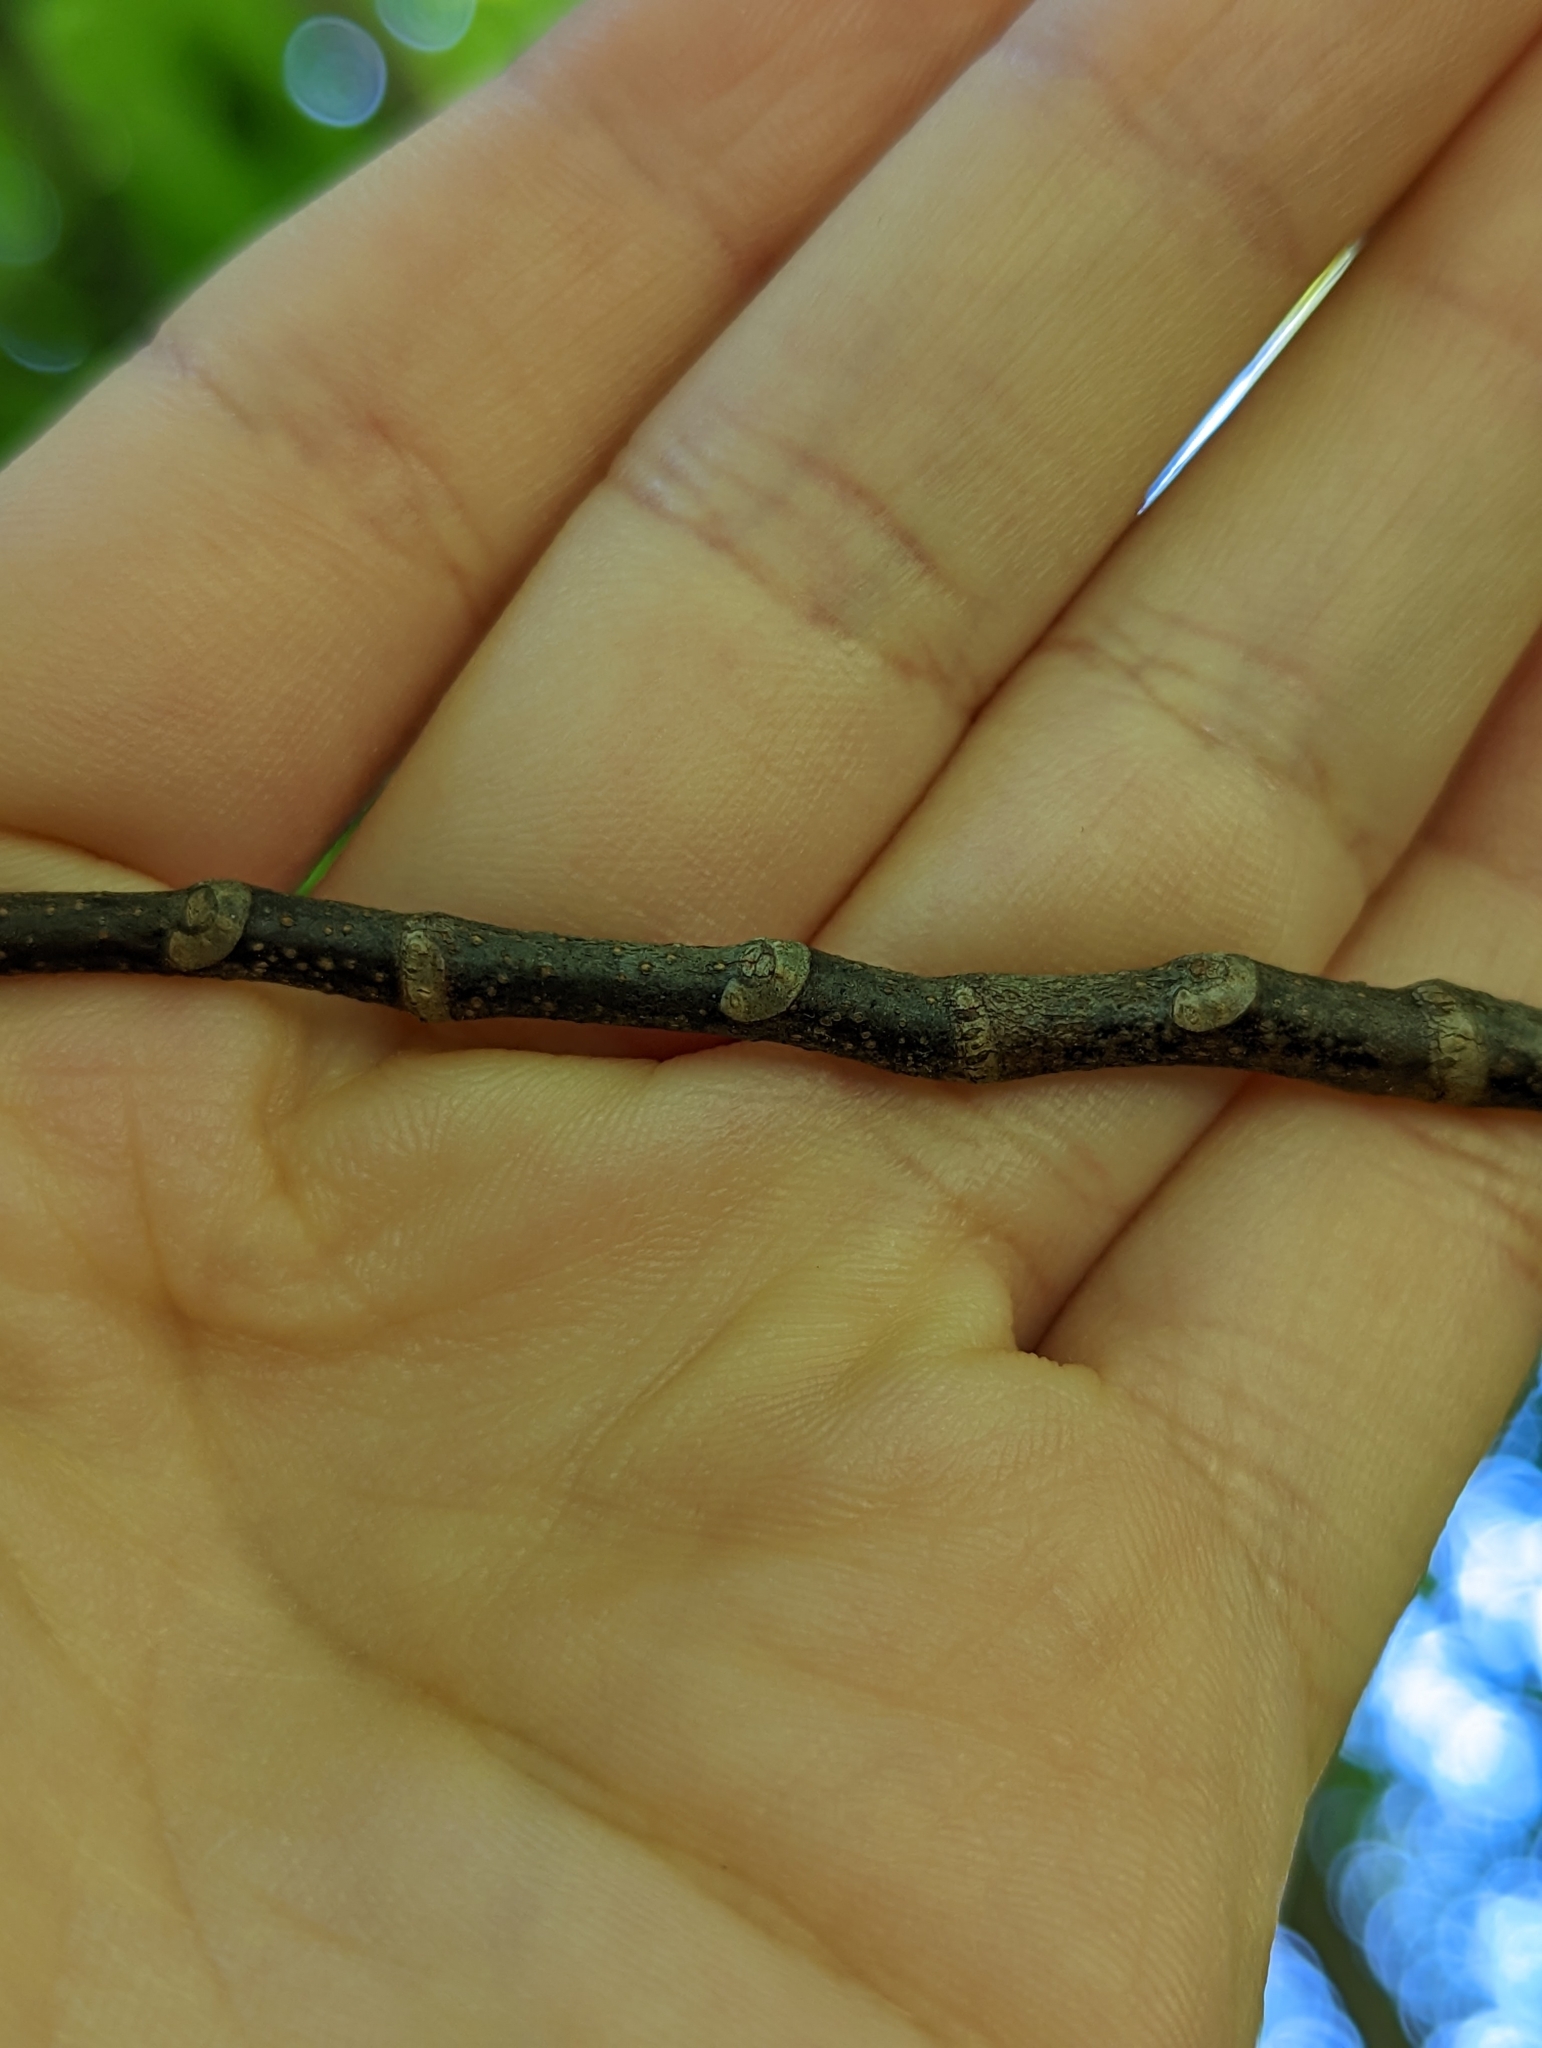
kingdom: Plantae
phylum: Tracheophyta
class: Magnoliopsida
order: Fabales
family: Fabaceae
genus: Cladrastis
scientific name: Cladrastis kentukea
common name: Kentucky yellow-wood
